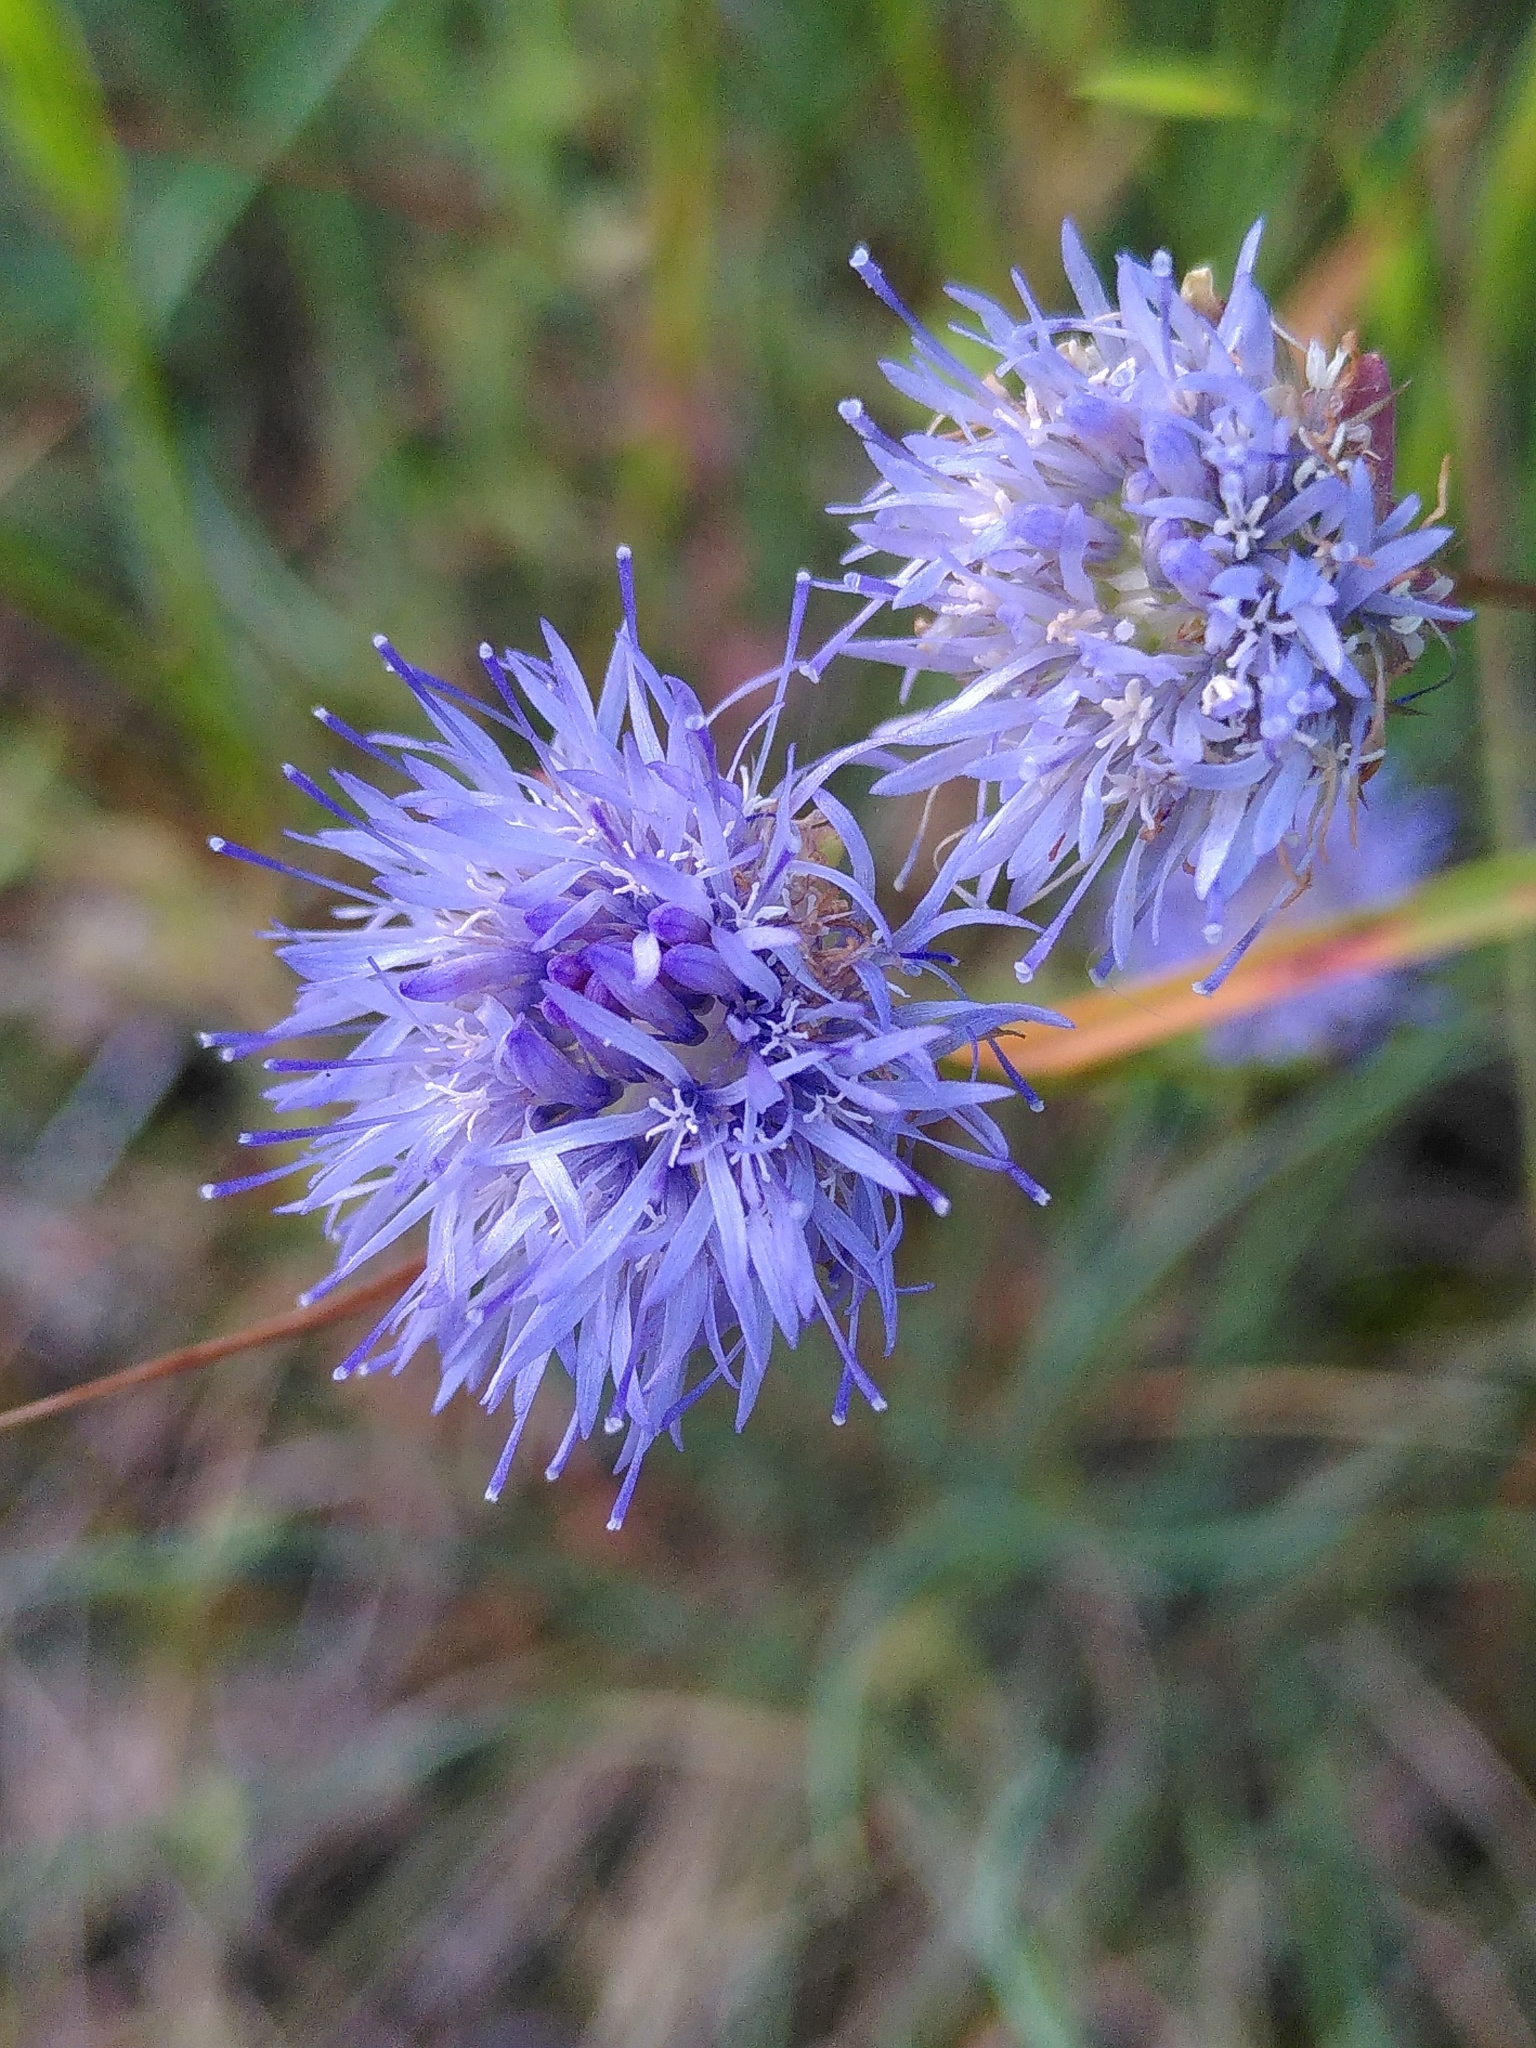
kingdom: Plantae
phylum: Tracheophyta
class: Magnoliopsida
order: Asterales
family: Campanulaceae
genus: Jasione
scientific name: Jasione montana
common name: Sheep's-bit
